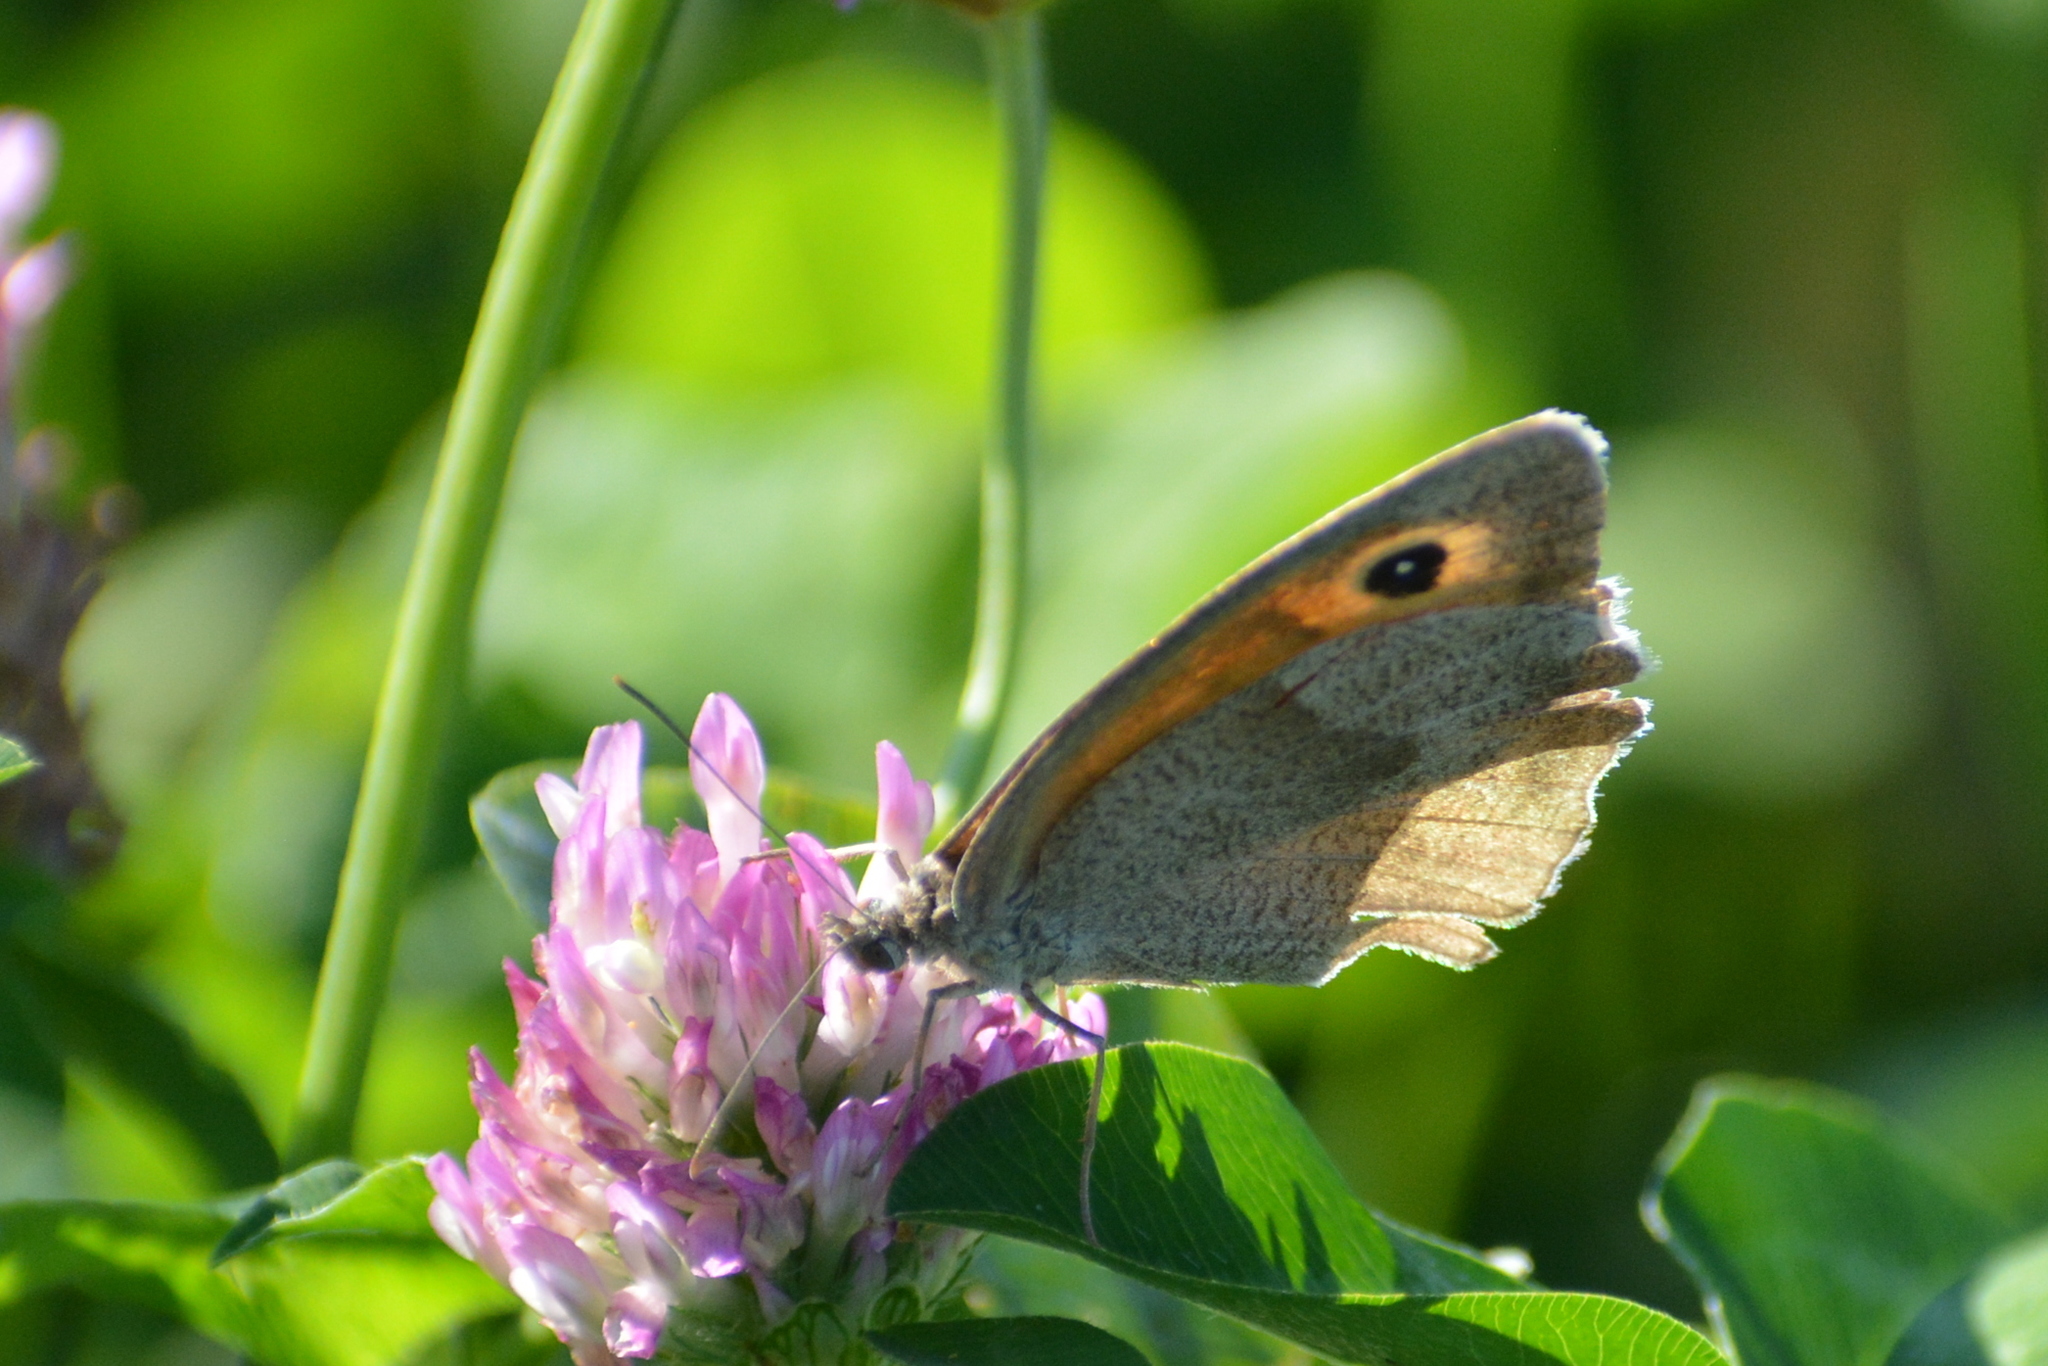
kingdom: Animalia
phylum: Arthropoda
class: Insecta
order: Lepidoptera
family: Nymphalidae
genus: Maniola
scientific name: Maniola jurtina
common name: Meadow brown
